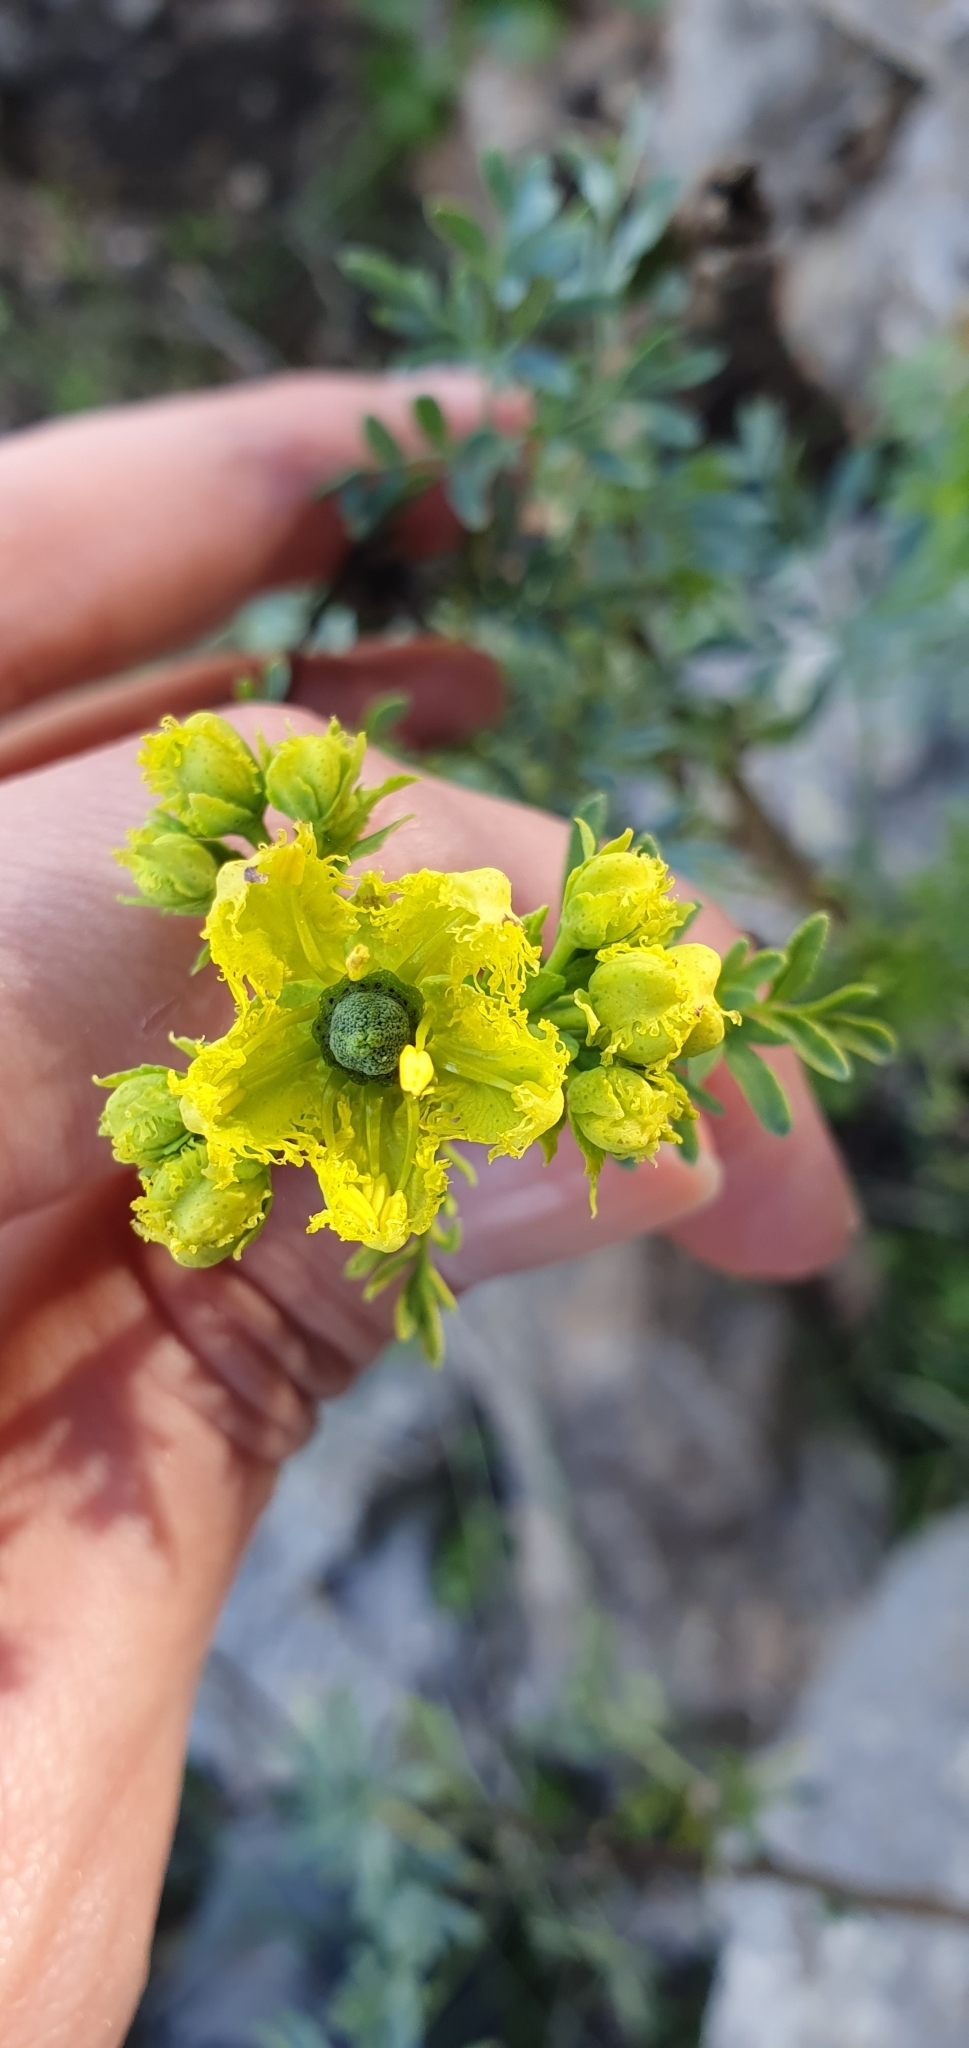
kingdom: Plantae
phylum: Tracheophyta
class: Magnoliopsida
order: Sapindales
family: Rutaceae
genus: Ruta
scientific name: Ruta chalepensis
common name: Fringed rue
